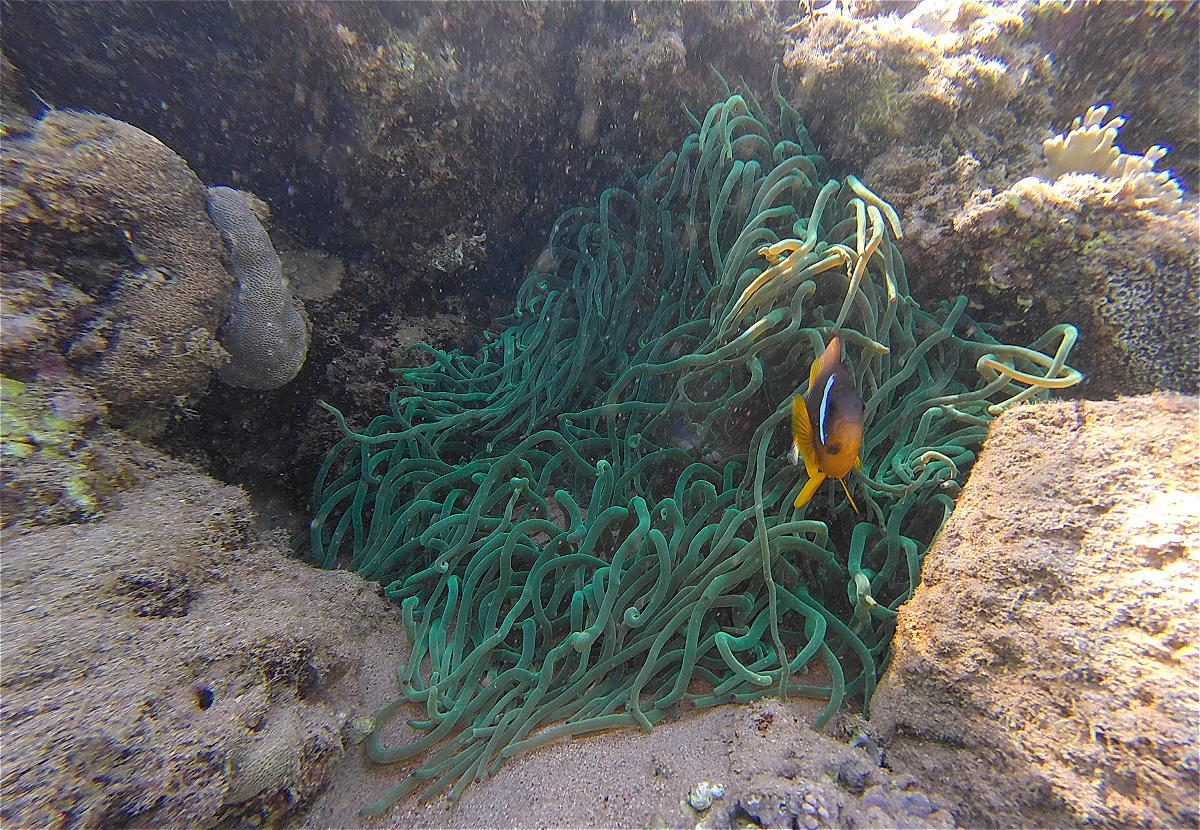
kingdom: Animalia
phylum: Cnidaria
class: Anthozoa
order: Actiniaria
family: Actiniidae
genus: Entacmaea
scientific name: Entacmaea quadricolor
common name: Bulb tentacle sea anemone
